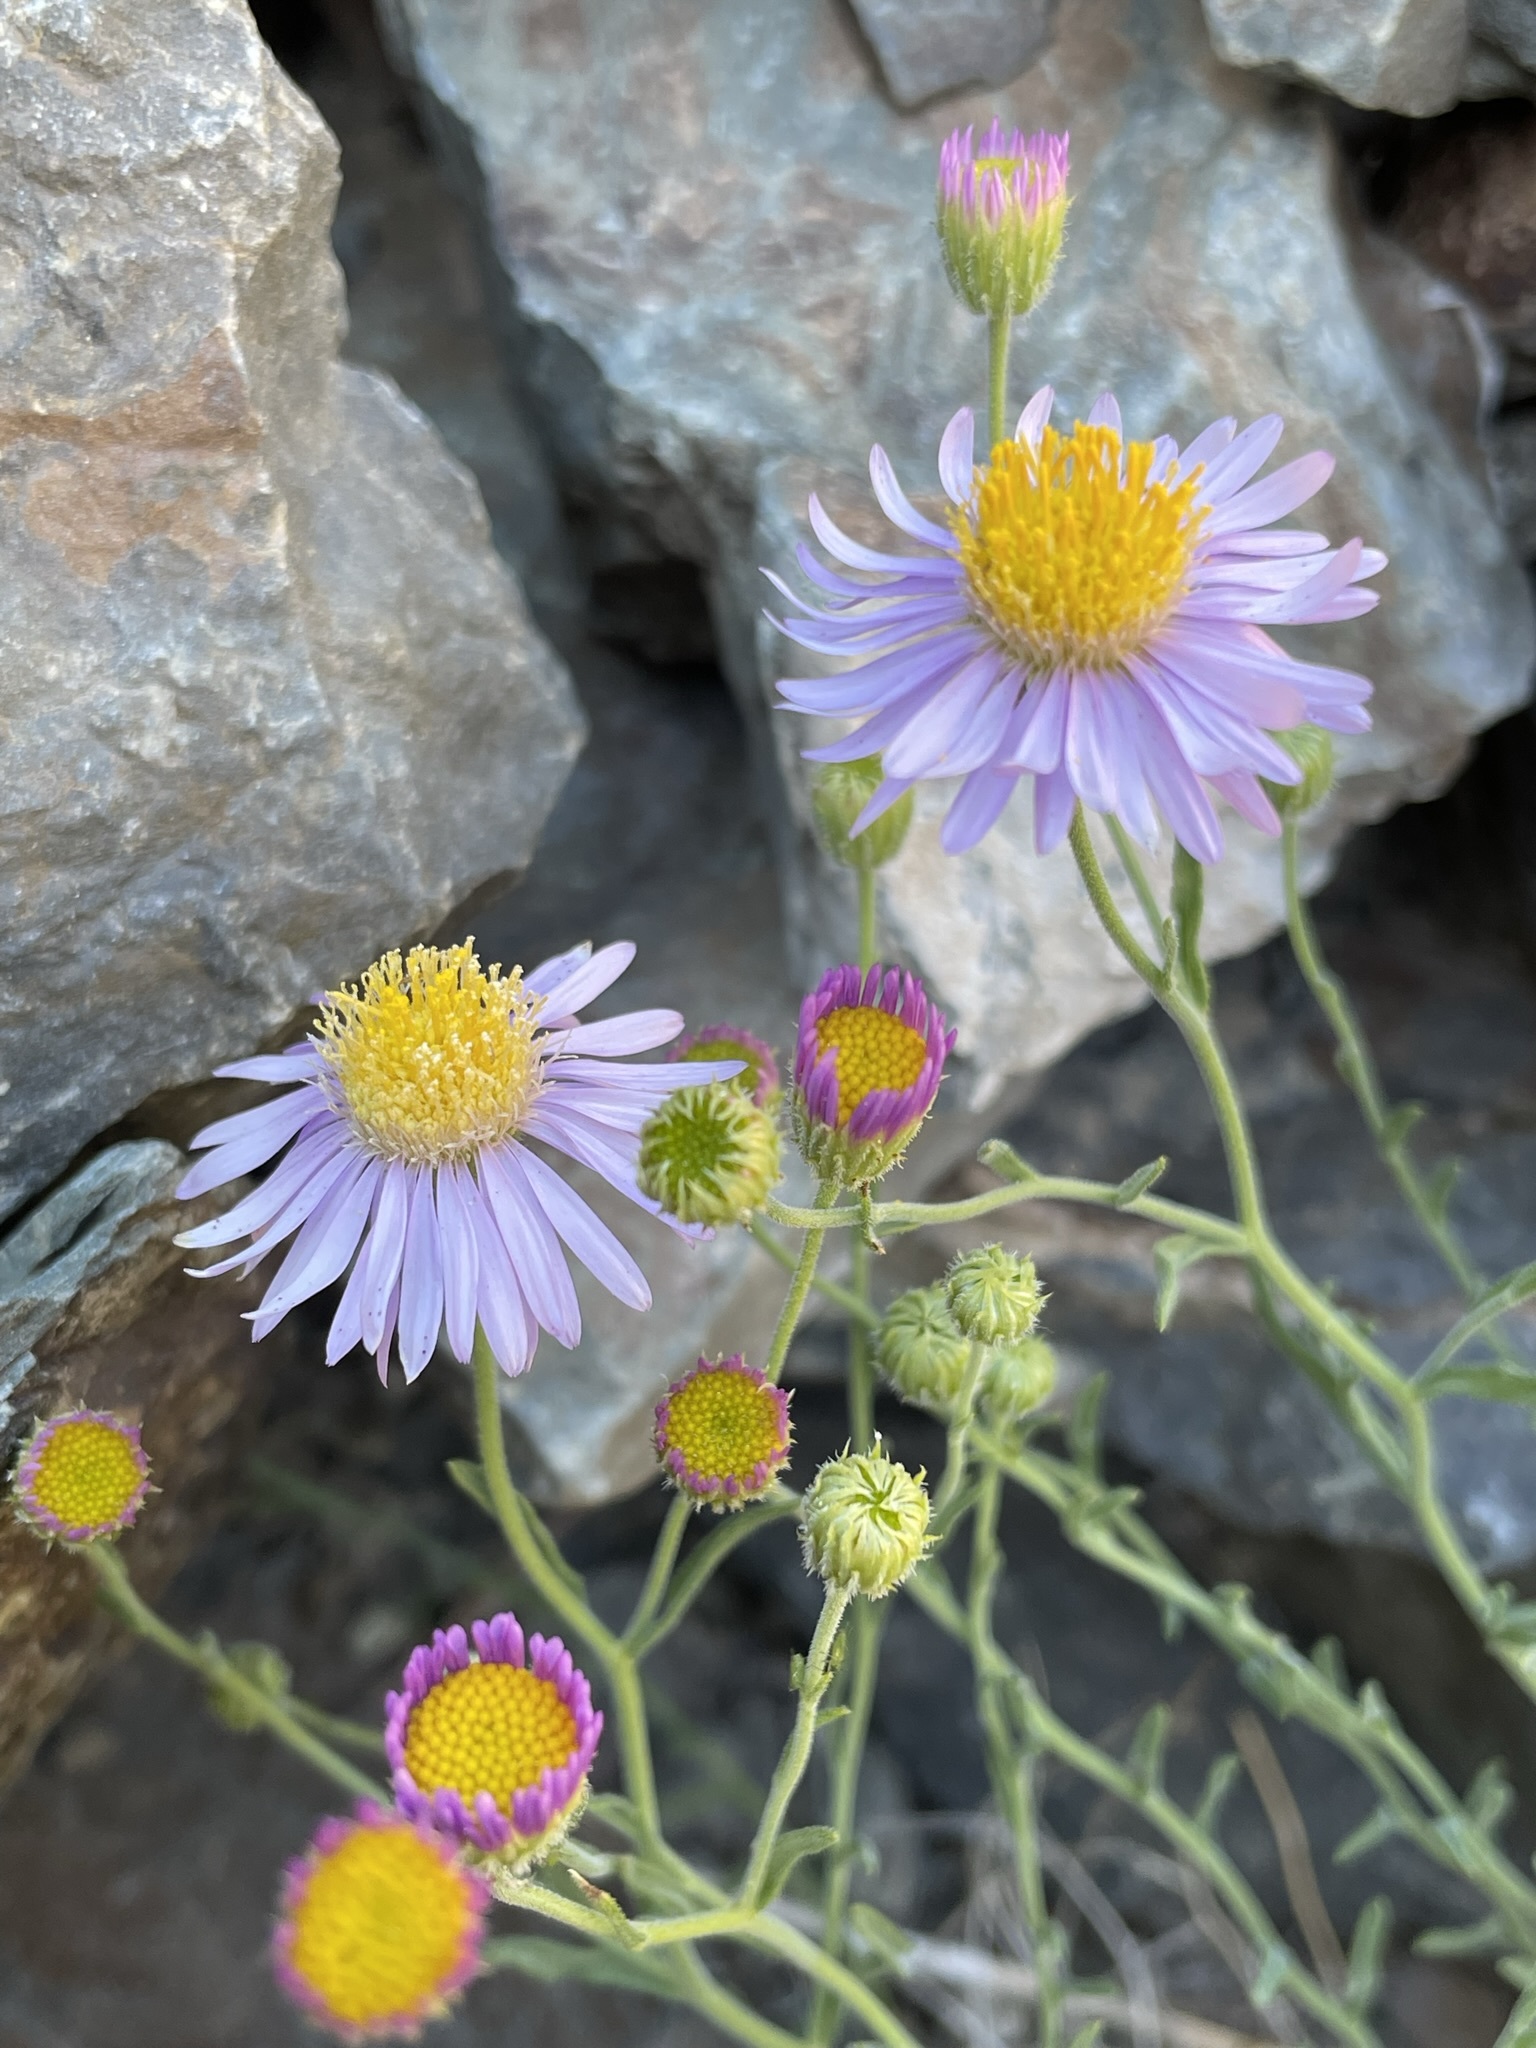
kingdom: Plantae
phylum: Tracheophyta
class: Magnoliopsida
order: Asterales
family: Asteraceae
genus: Erigeron
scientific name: Erigeron breweri
